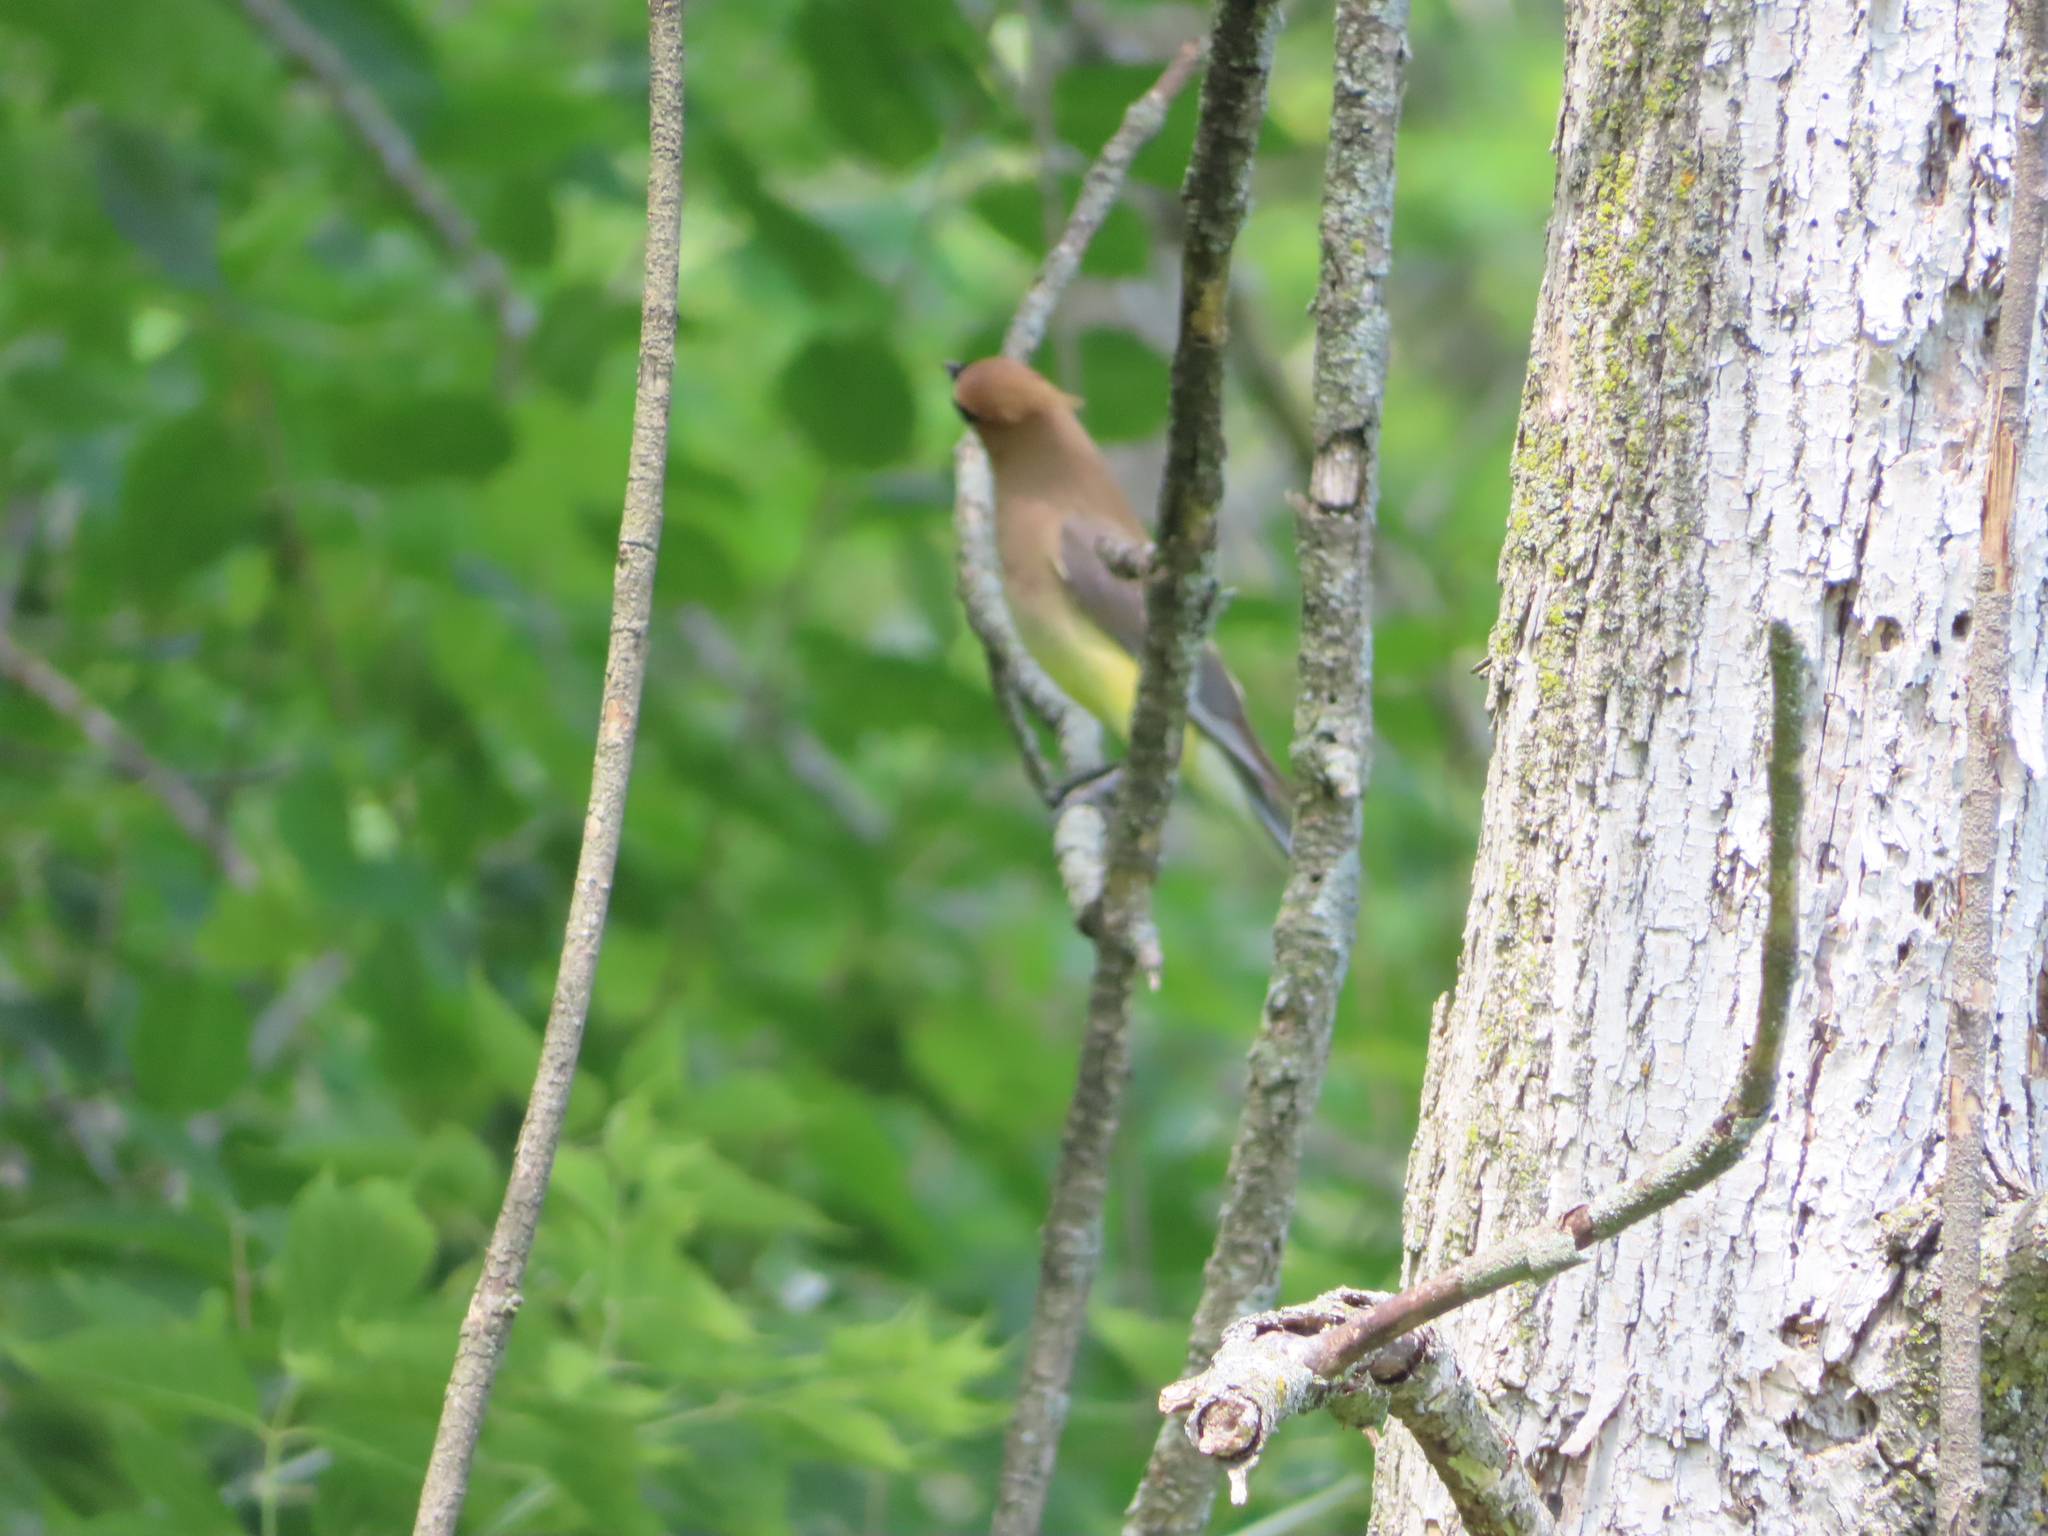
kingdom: Animalia
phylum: Chordata
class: Aves
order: Passeriformes
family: Bombycillidae
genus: Bombycilla
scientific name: Bombycilla cedrorum
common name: Cedar waxwing
